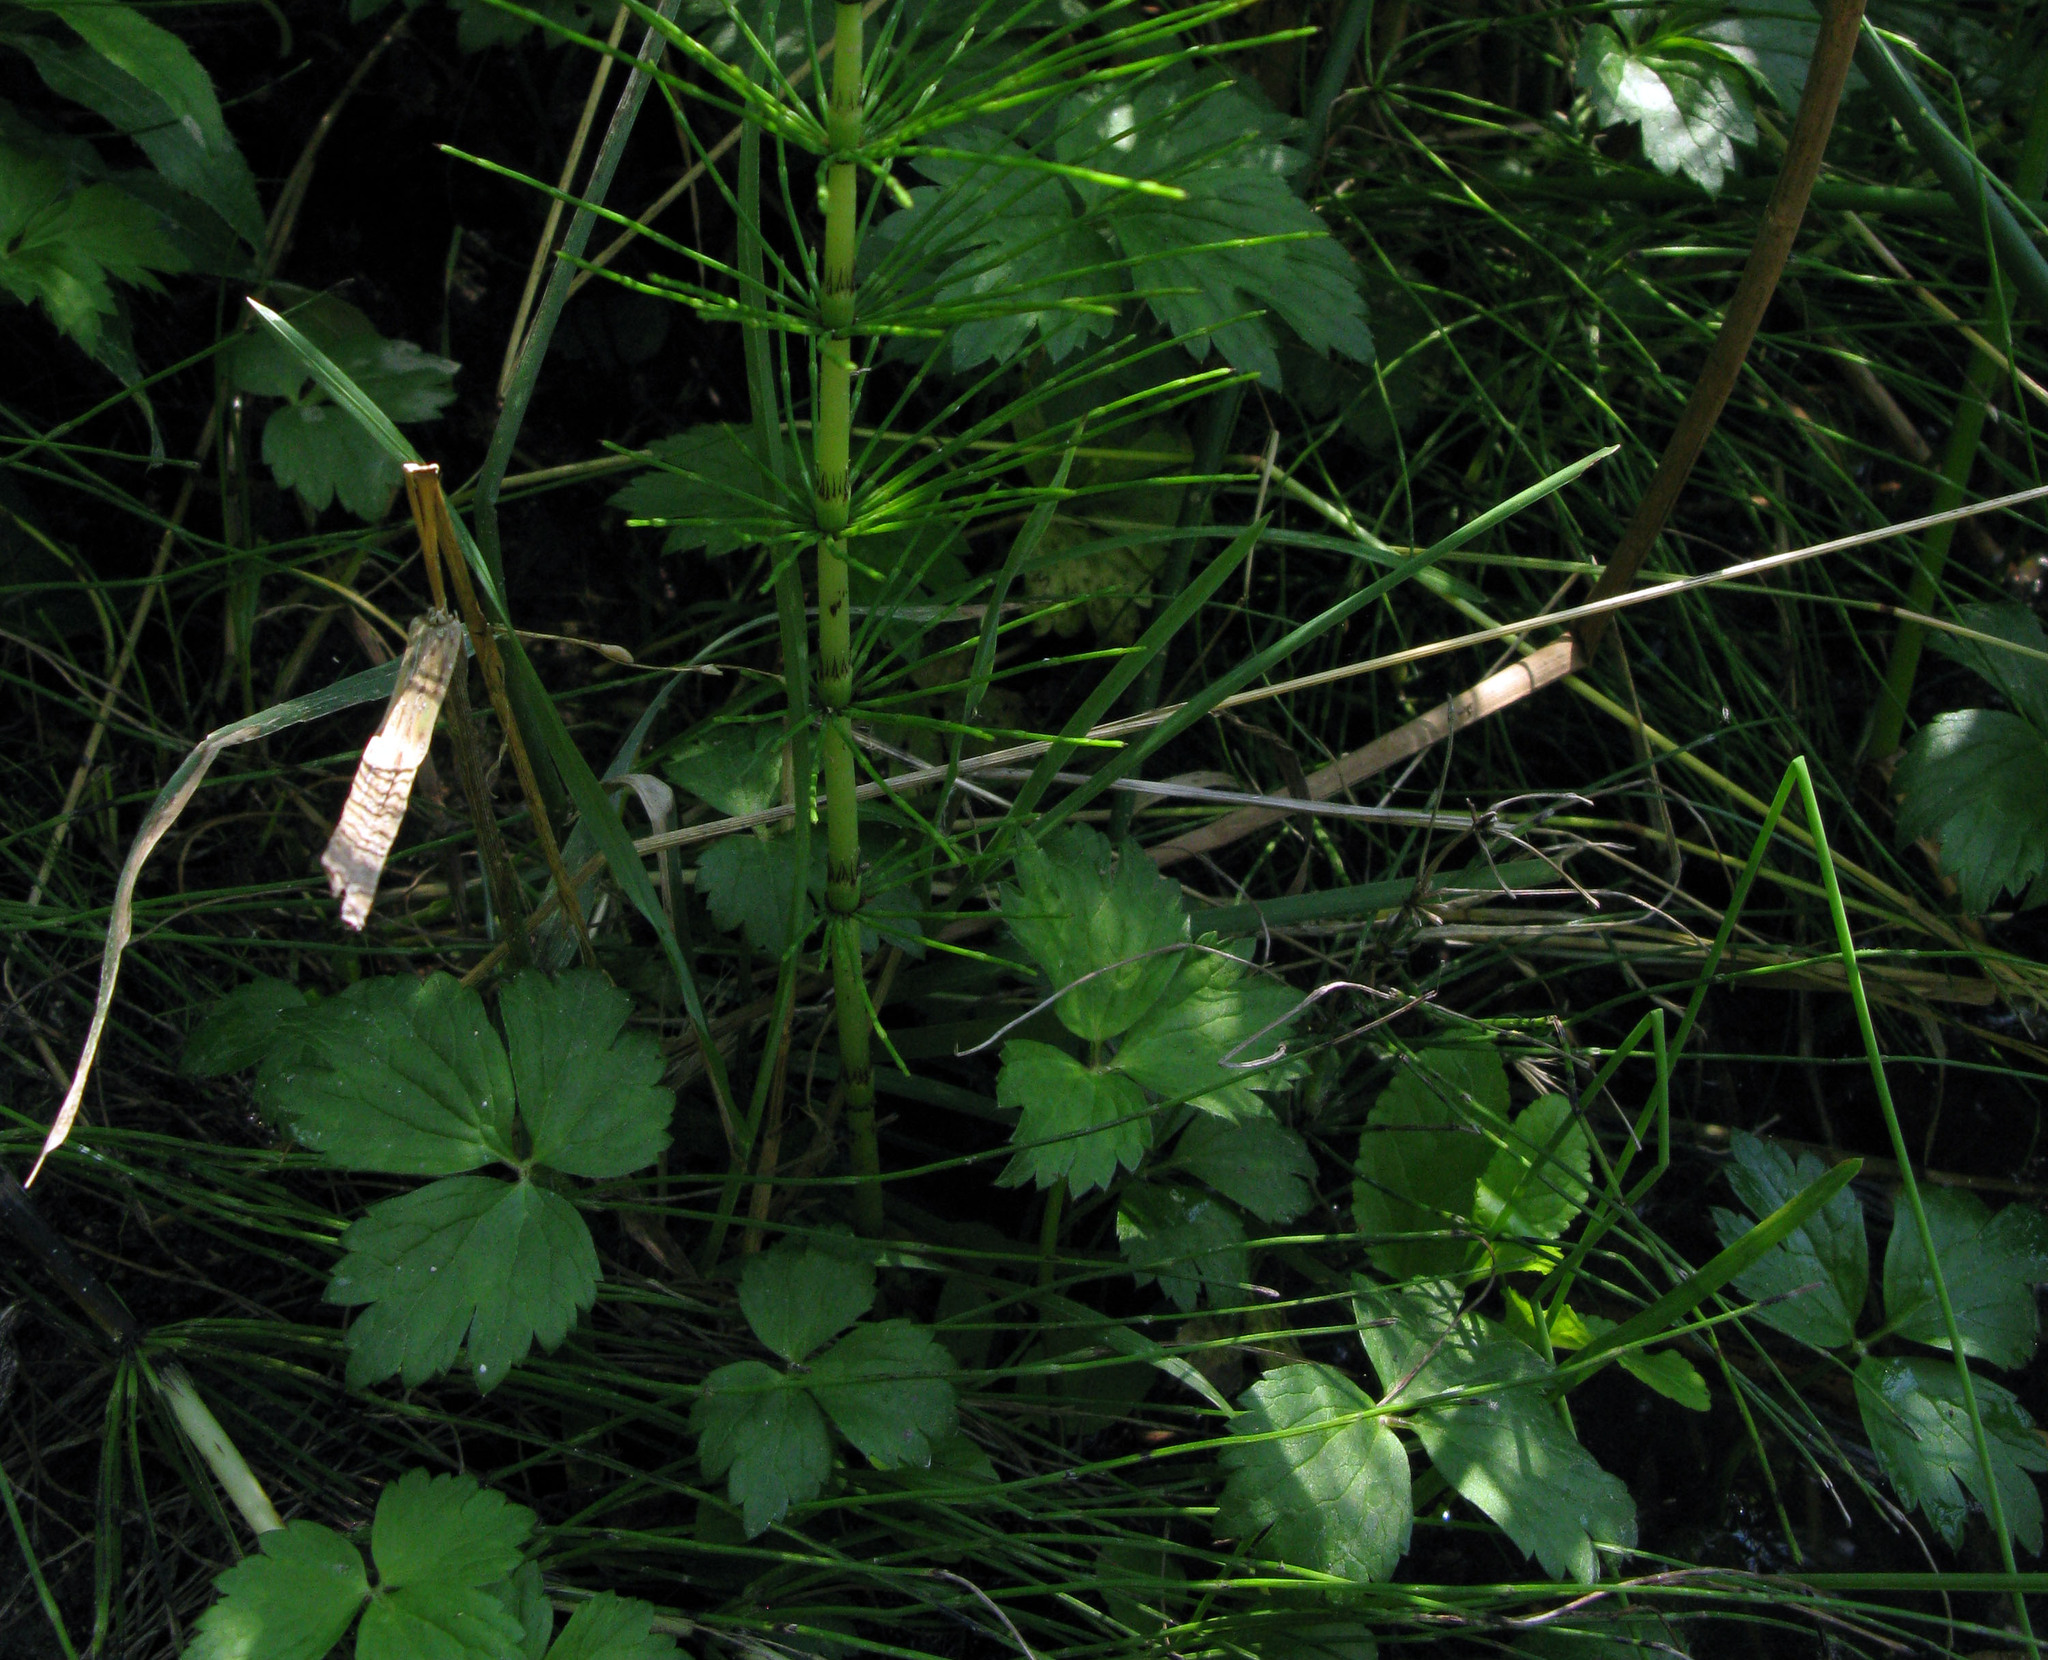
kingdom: Plantae
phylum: Tracheophyta
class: Magnoliopsida
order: Ranunculales
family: Ranunculaceae
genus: Ranunculus
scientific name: Ranunculus repens
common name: Creeping buttercup
